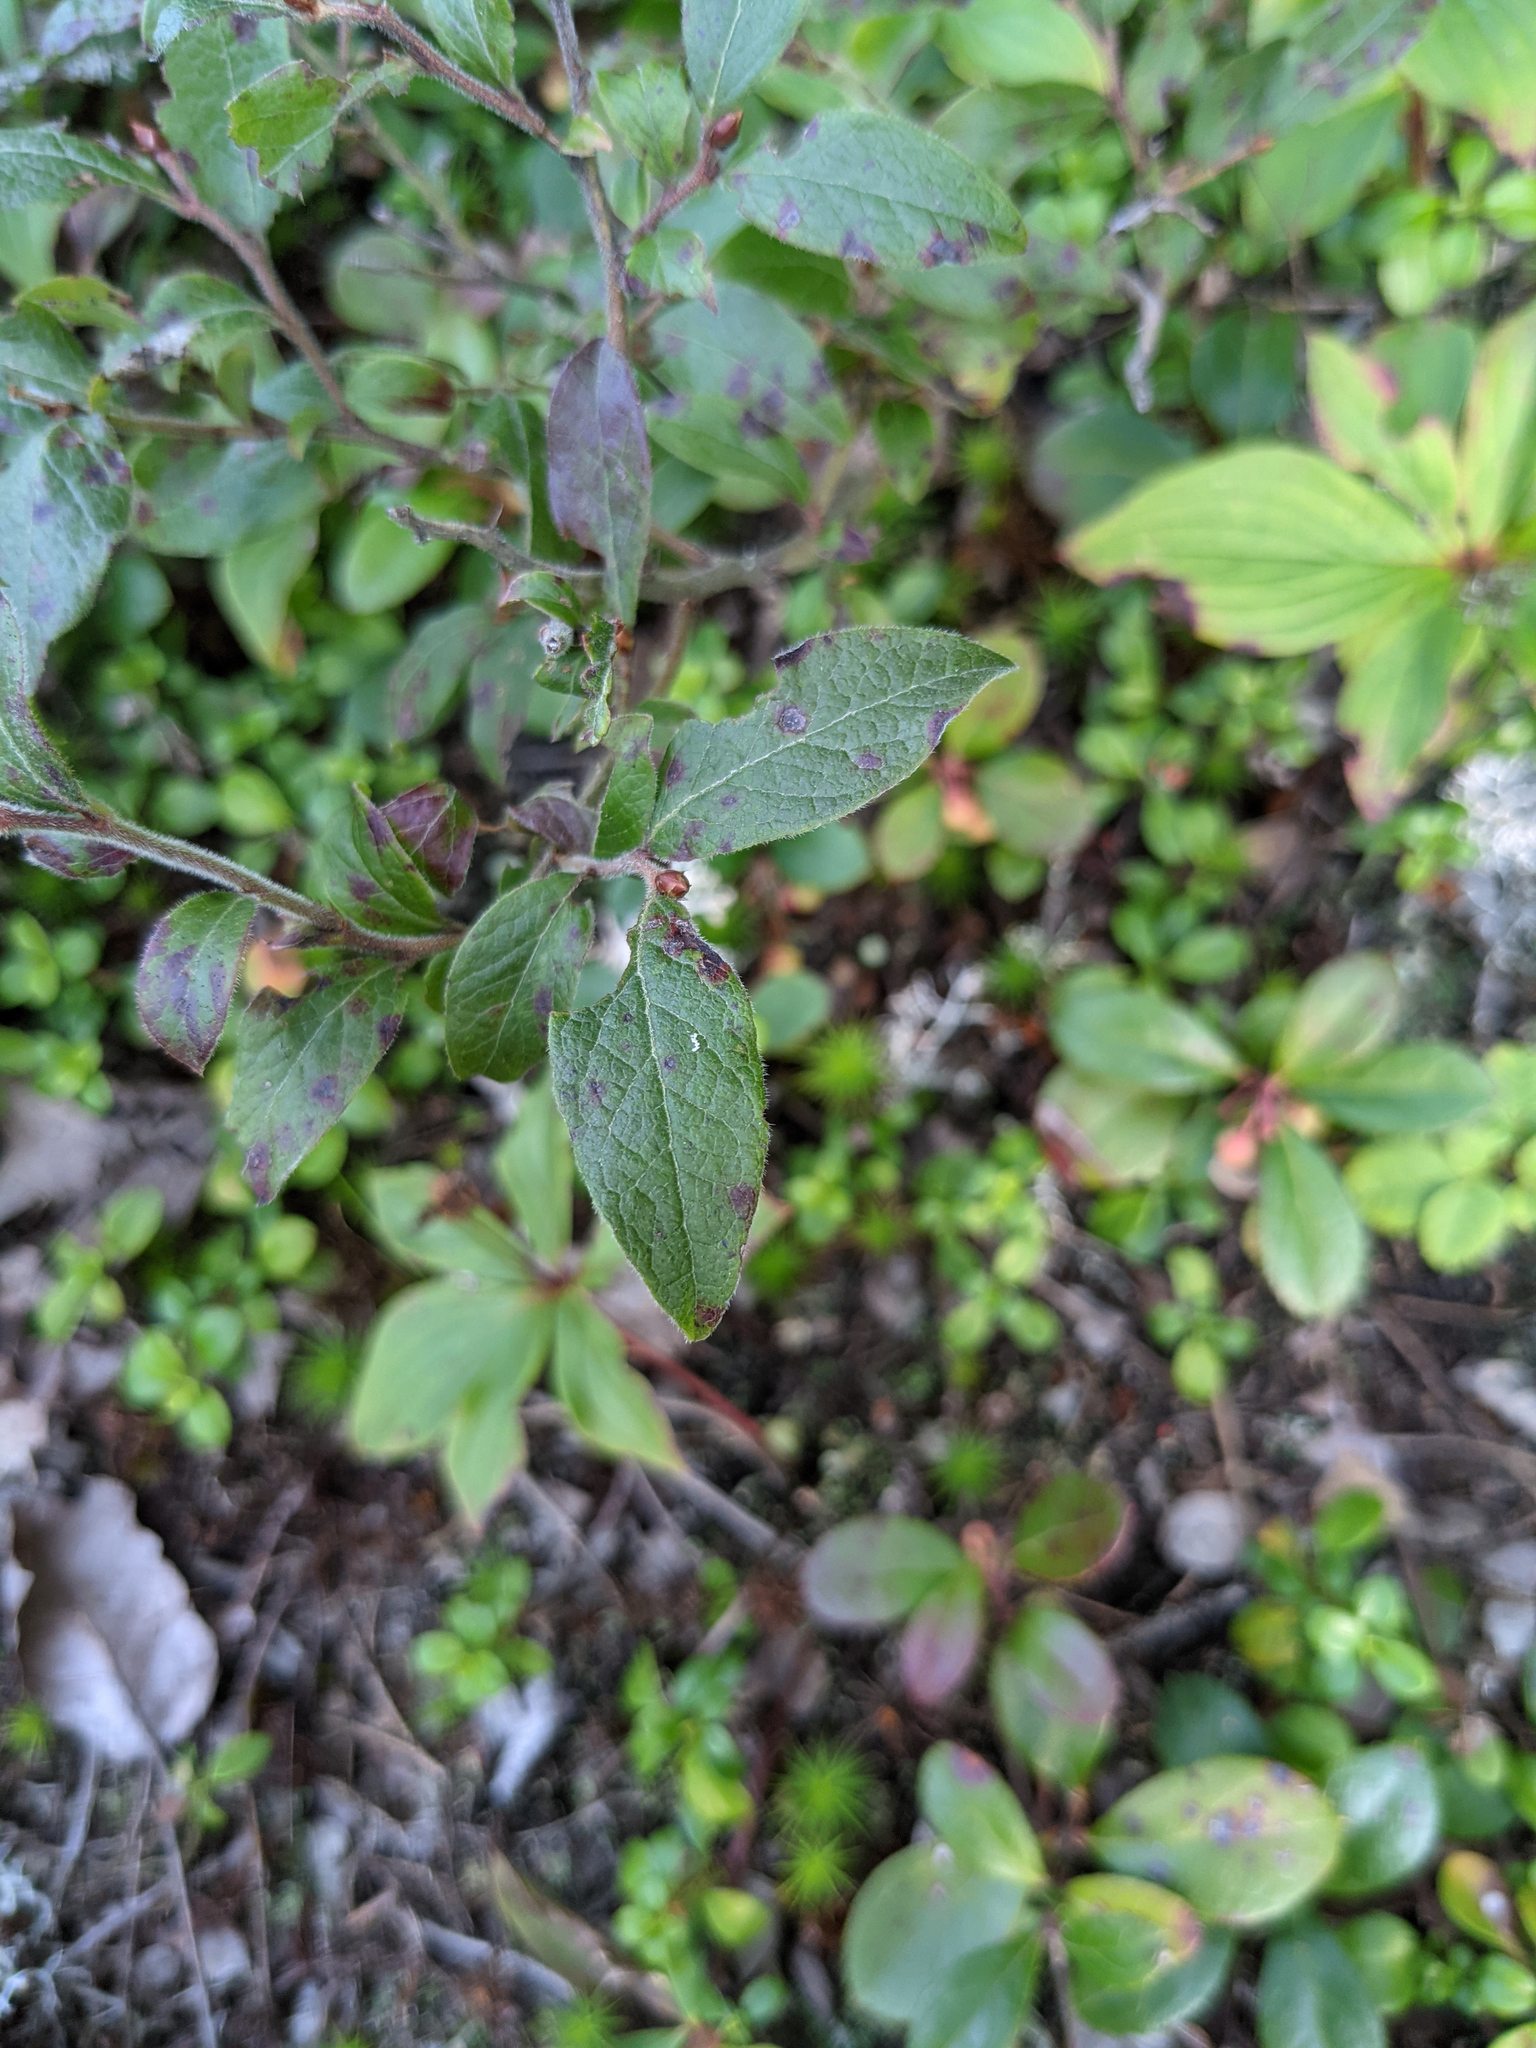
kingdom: Plantae
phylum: Tracheophyta
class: Magnoliopsida
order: Ericales
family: Ericaceae
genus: Vaccinium
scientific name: Vaccinium myrtilloides
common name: Canada blueberry
